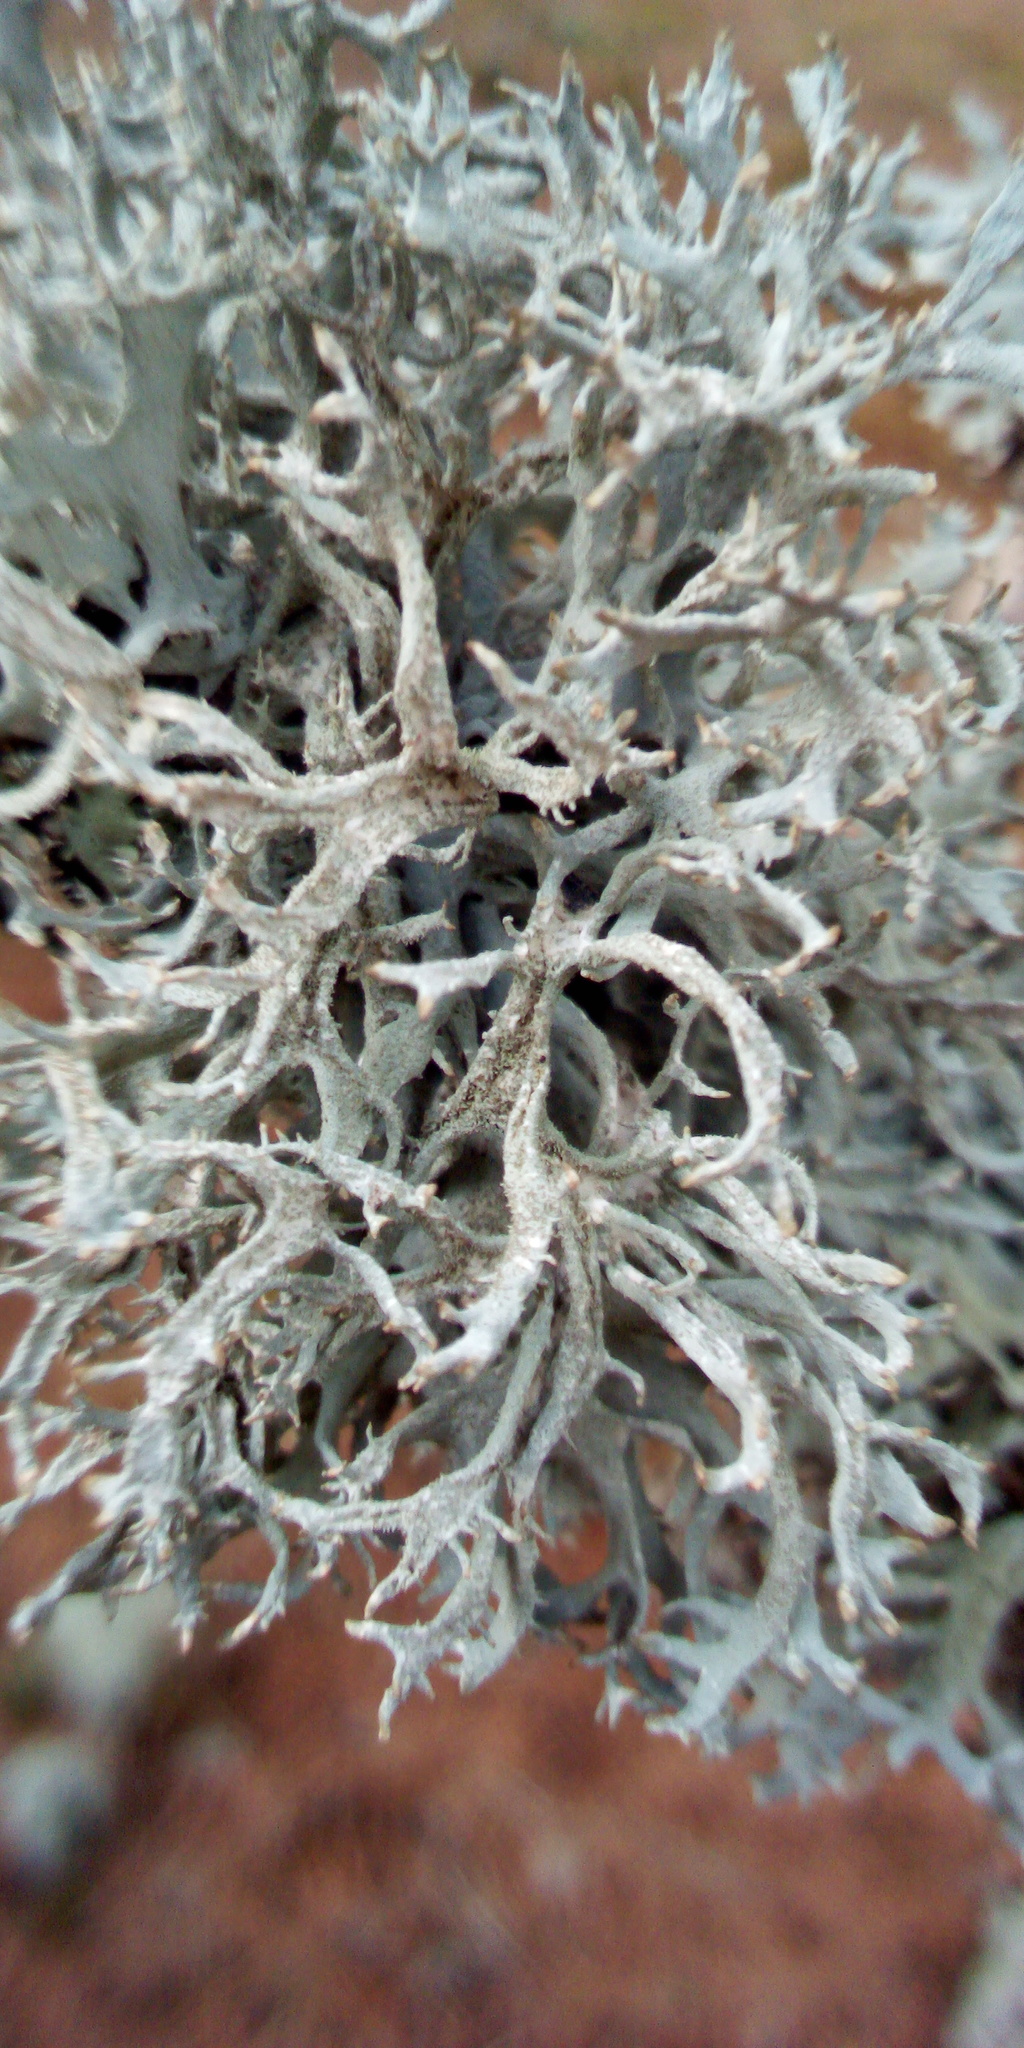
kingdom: Fungi
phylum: Ascomycota
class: Lecanoromycetes
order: Lecanorales
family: Parmeliaceae
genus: Pseudevernia
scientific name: Pseudevernia furfuracea
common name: Tree moss
